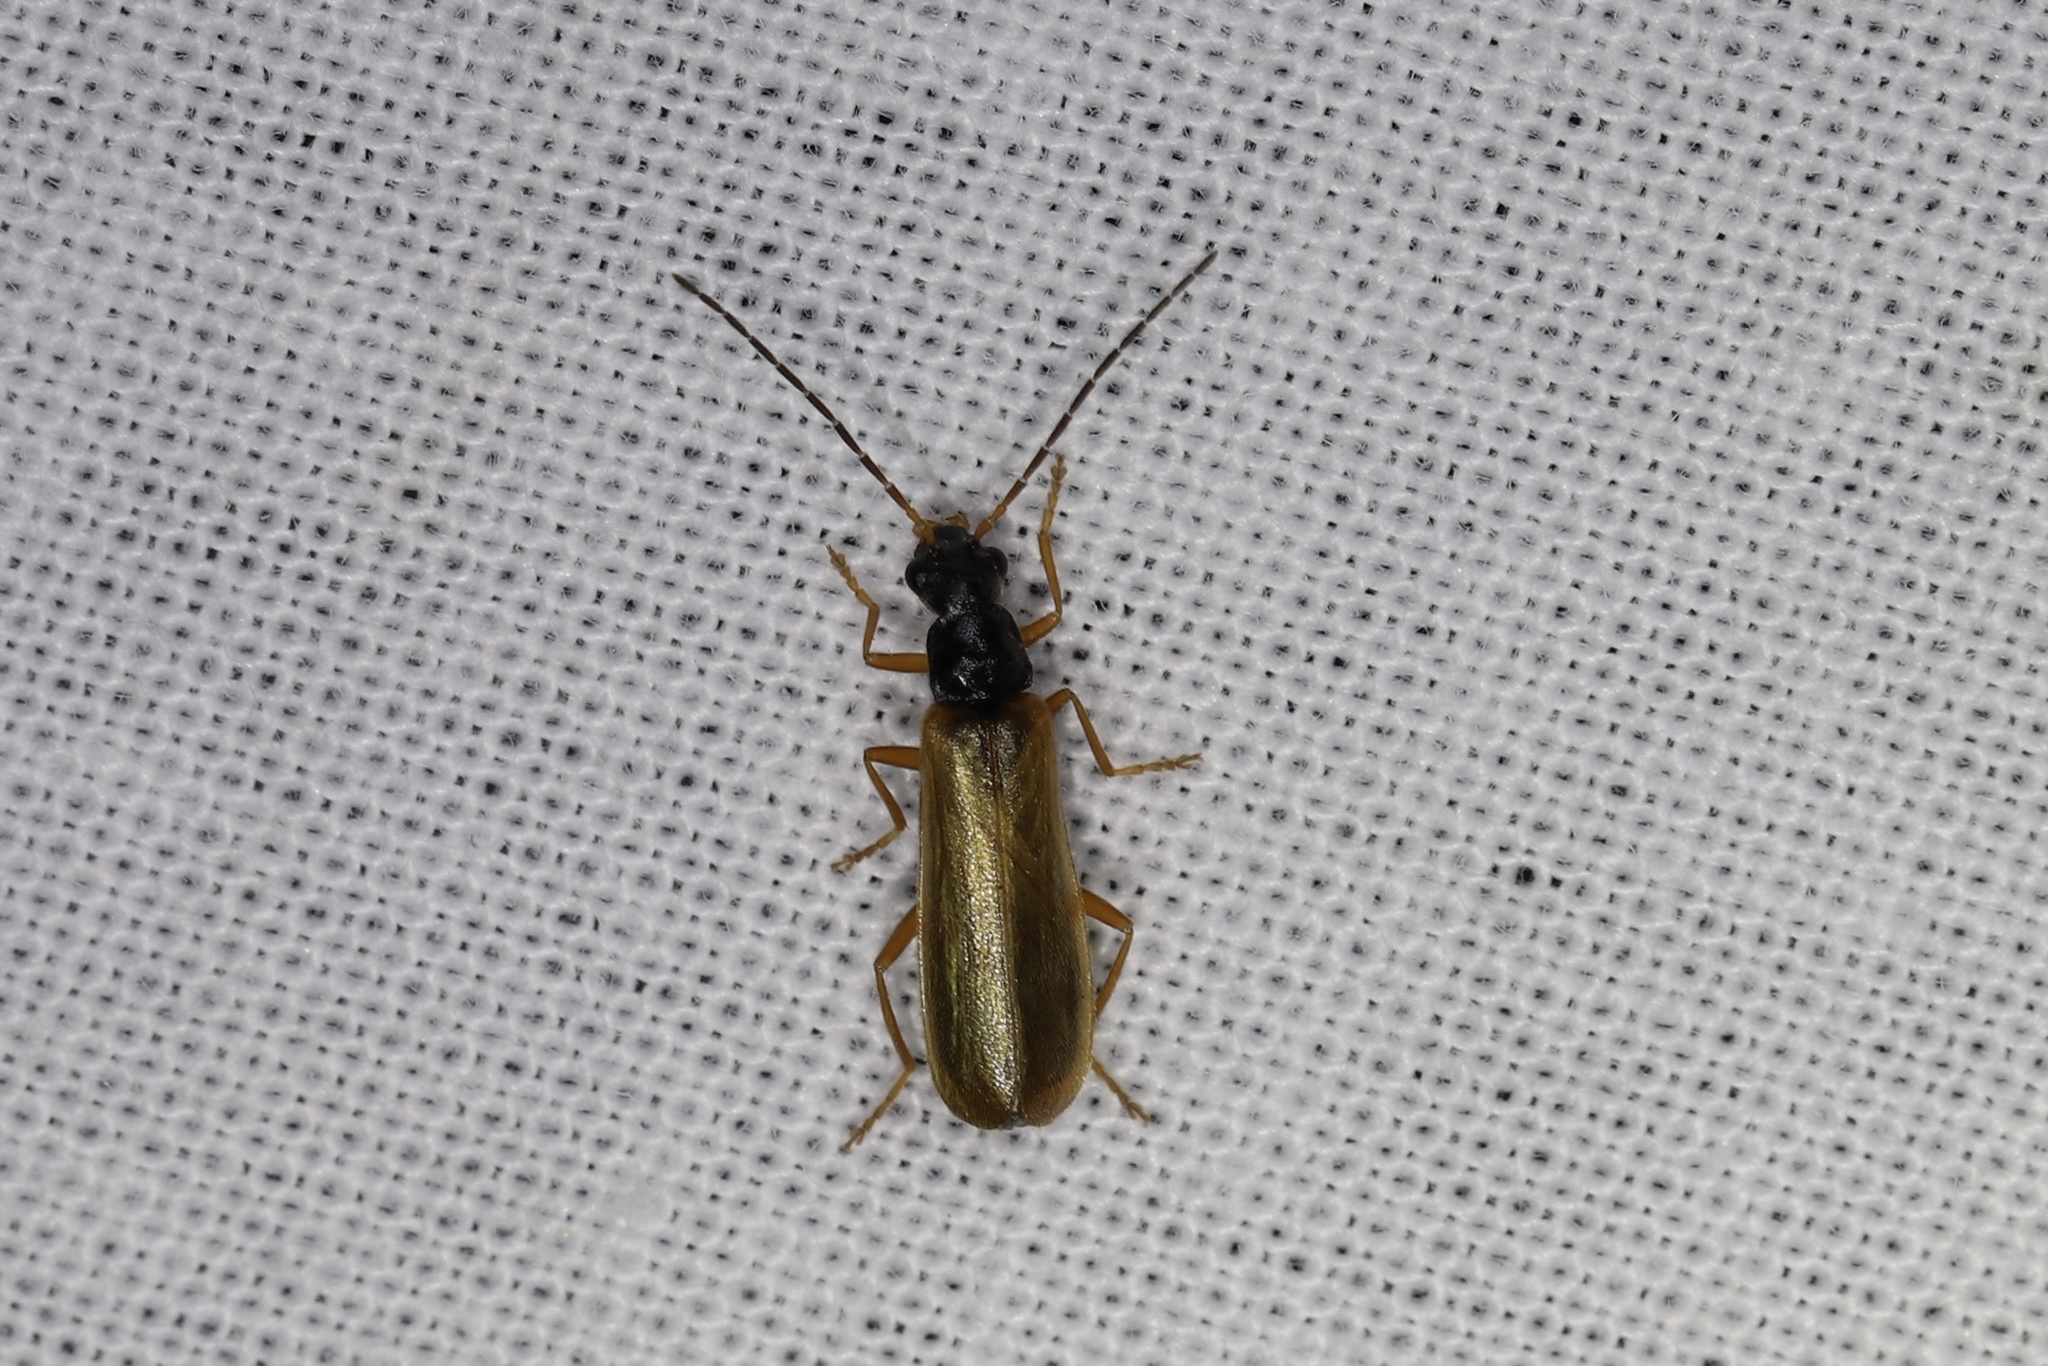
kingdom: Animalia
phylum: Arthropoda
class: Insecta
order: Coleoptera
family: Cantharidae
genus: Rhagonycha
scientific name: Rhagonycha lignosa
